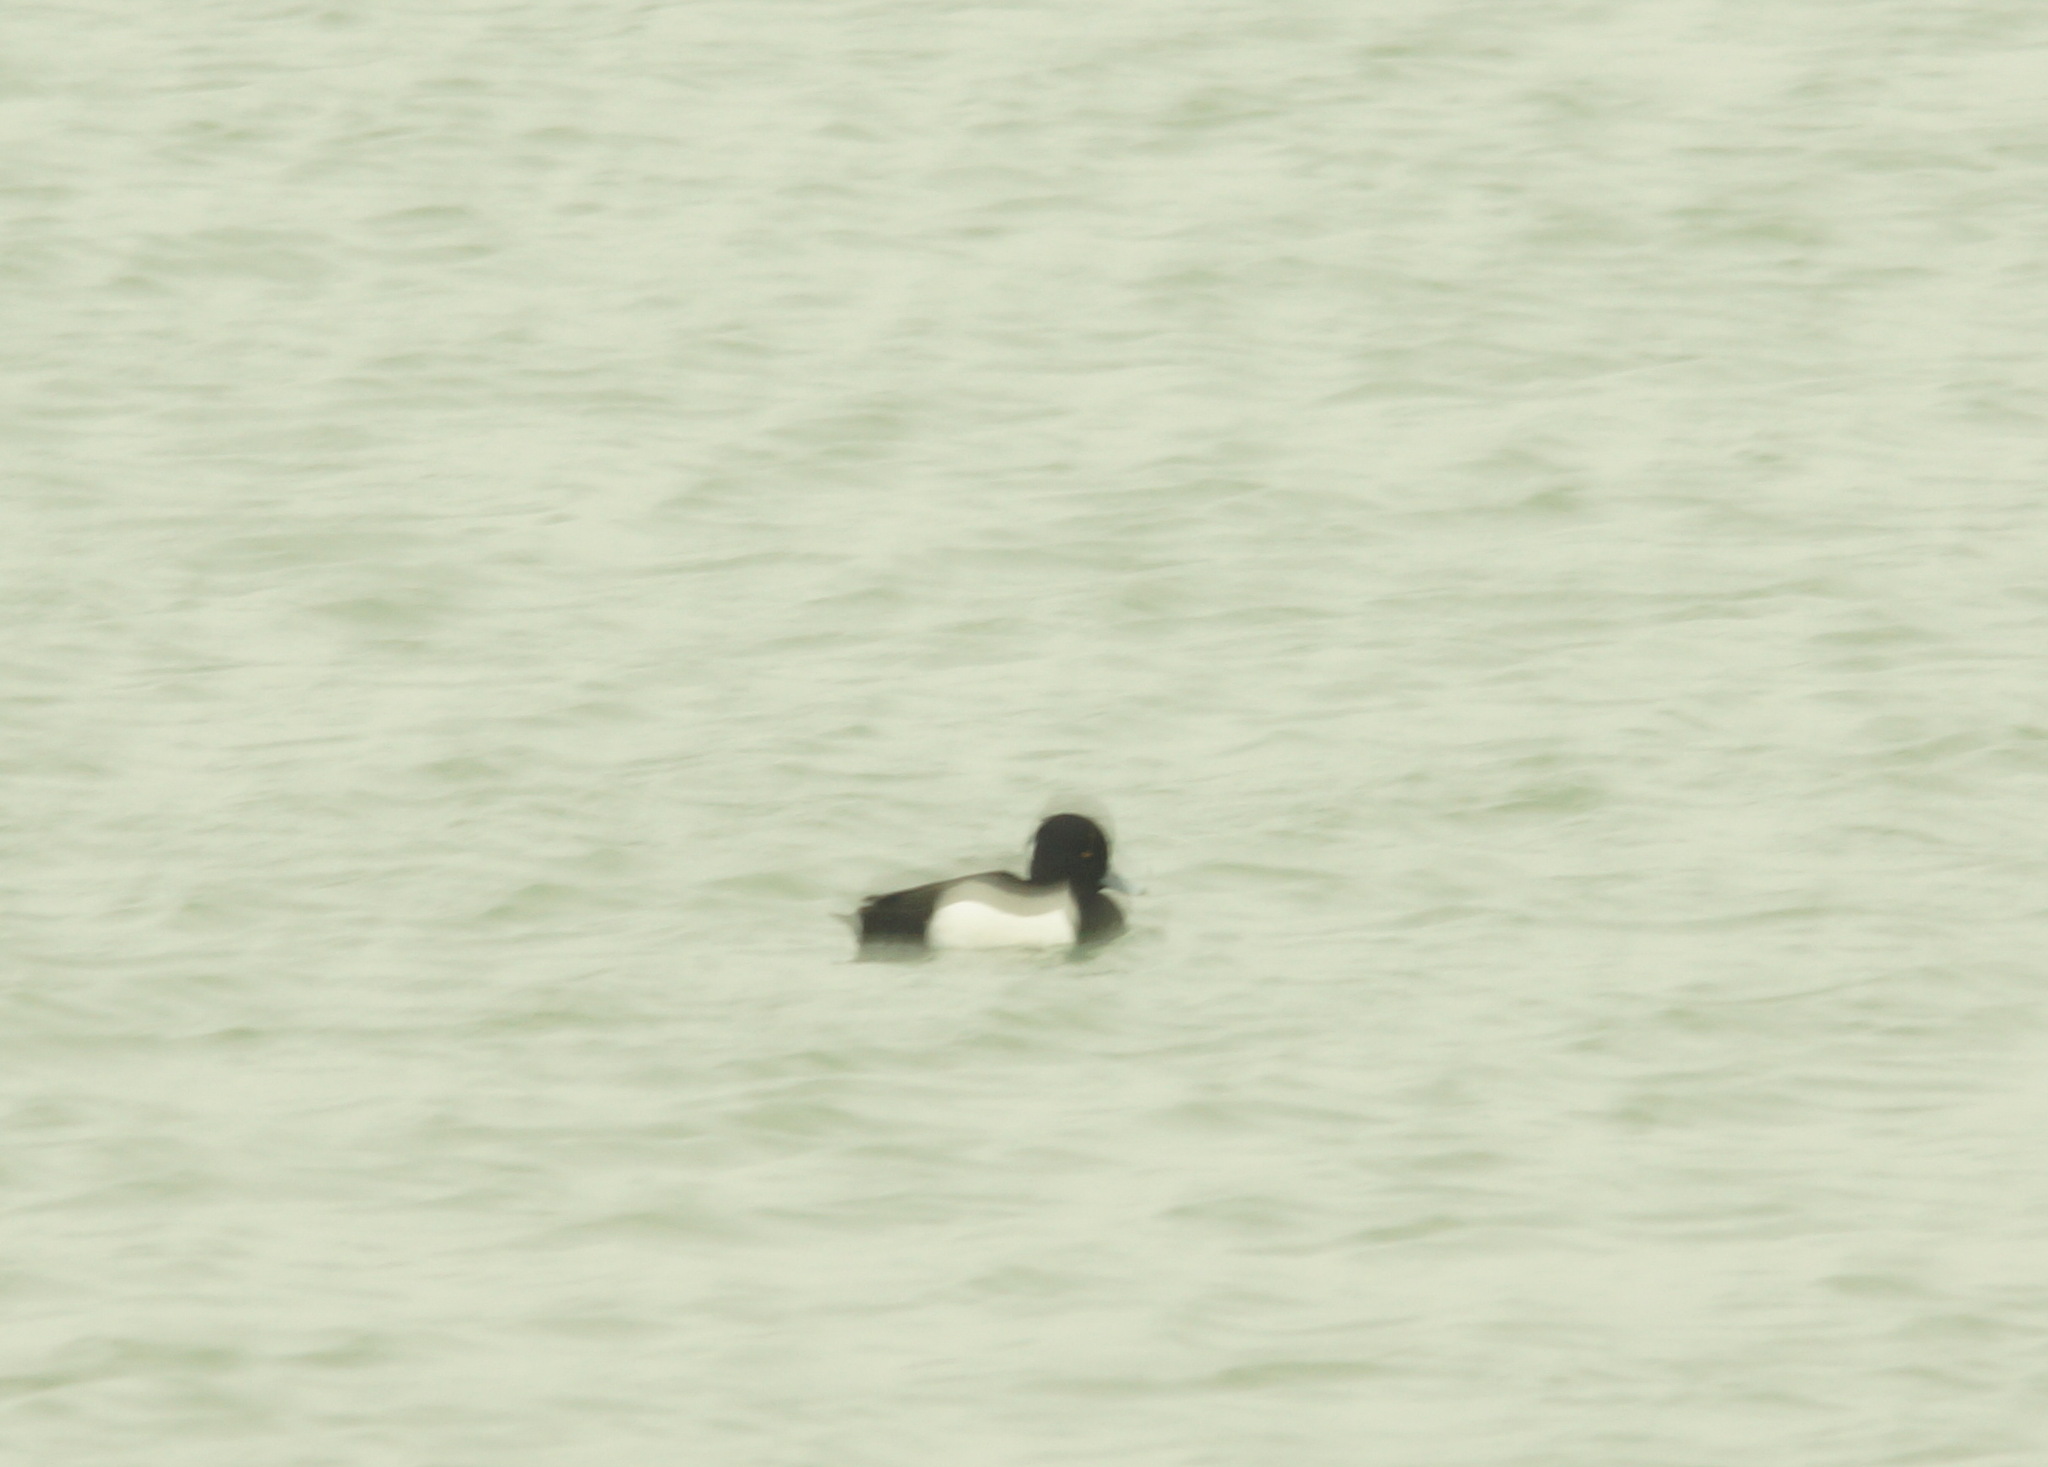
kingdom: Animalia
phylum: Chordata
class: Aves
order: Anseriformes
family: Anatidae
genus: Aythya
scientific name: Aythya fuligula
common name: Tufted duck
